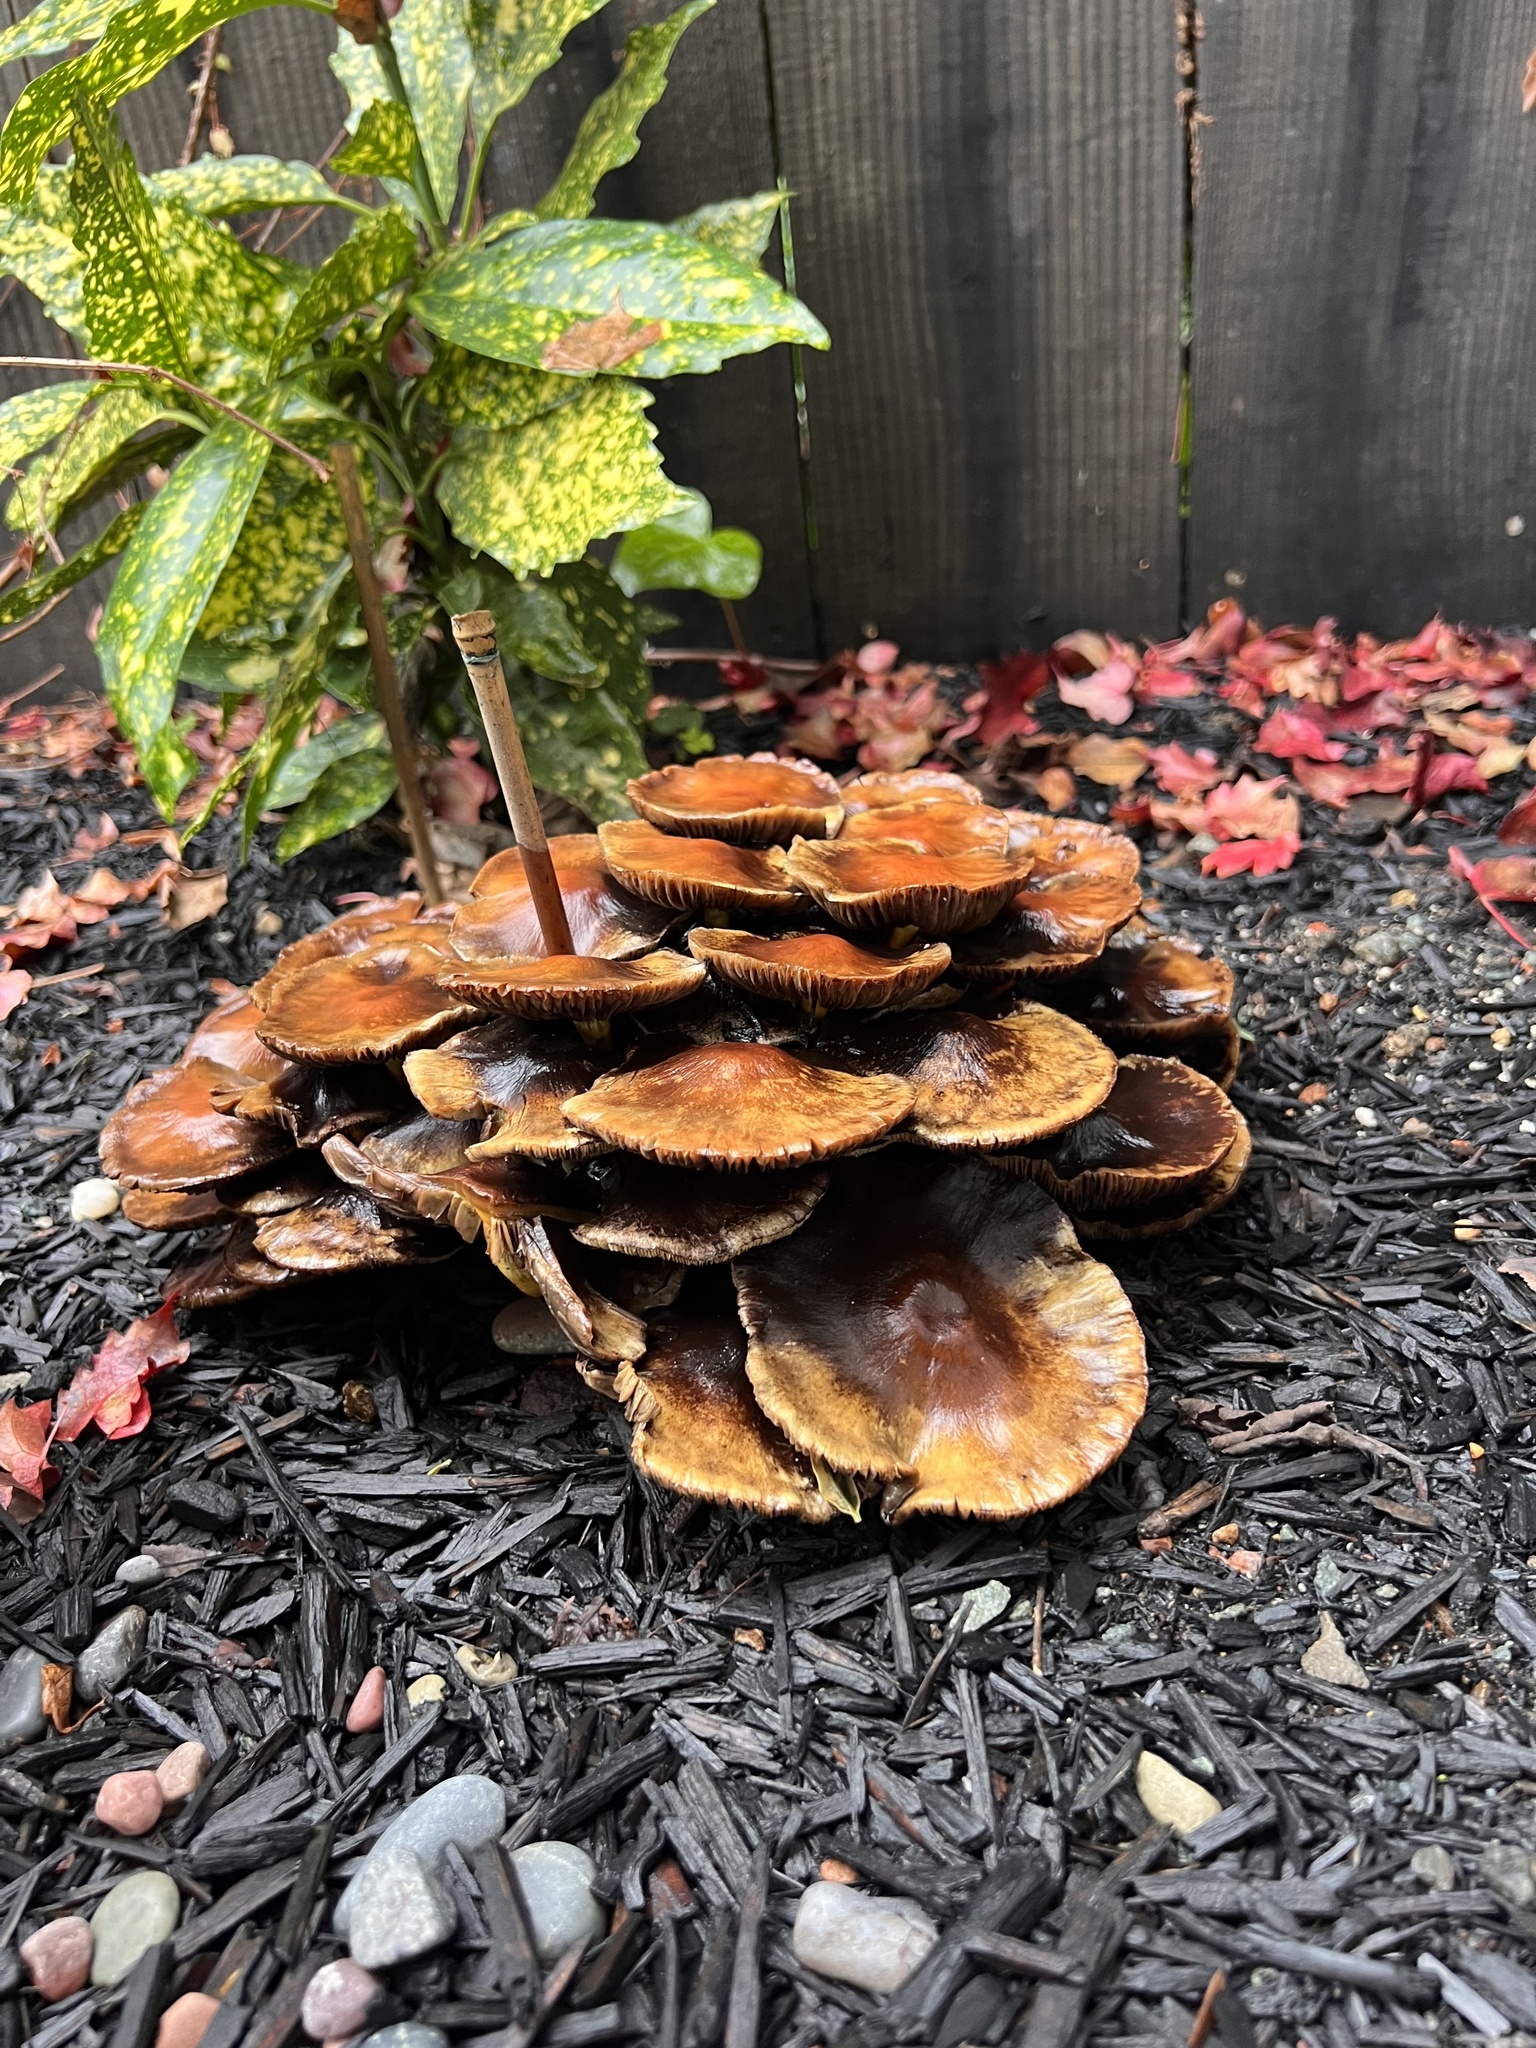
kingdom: Fungi
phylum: Basidiomycota
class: Agaricomycetes
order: Agaricales
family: Strophariaceae
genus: Hypholoma
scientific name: Hypholoma fasciculare
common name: Sulphur tuft
